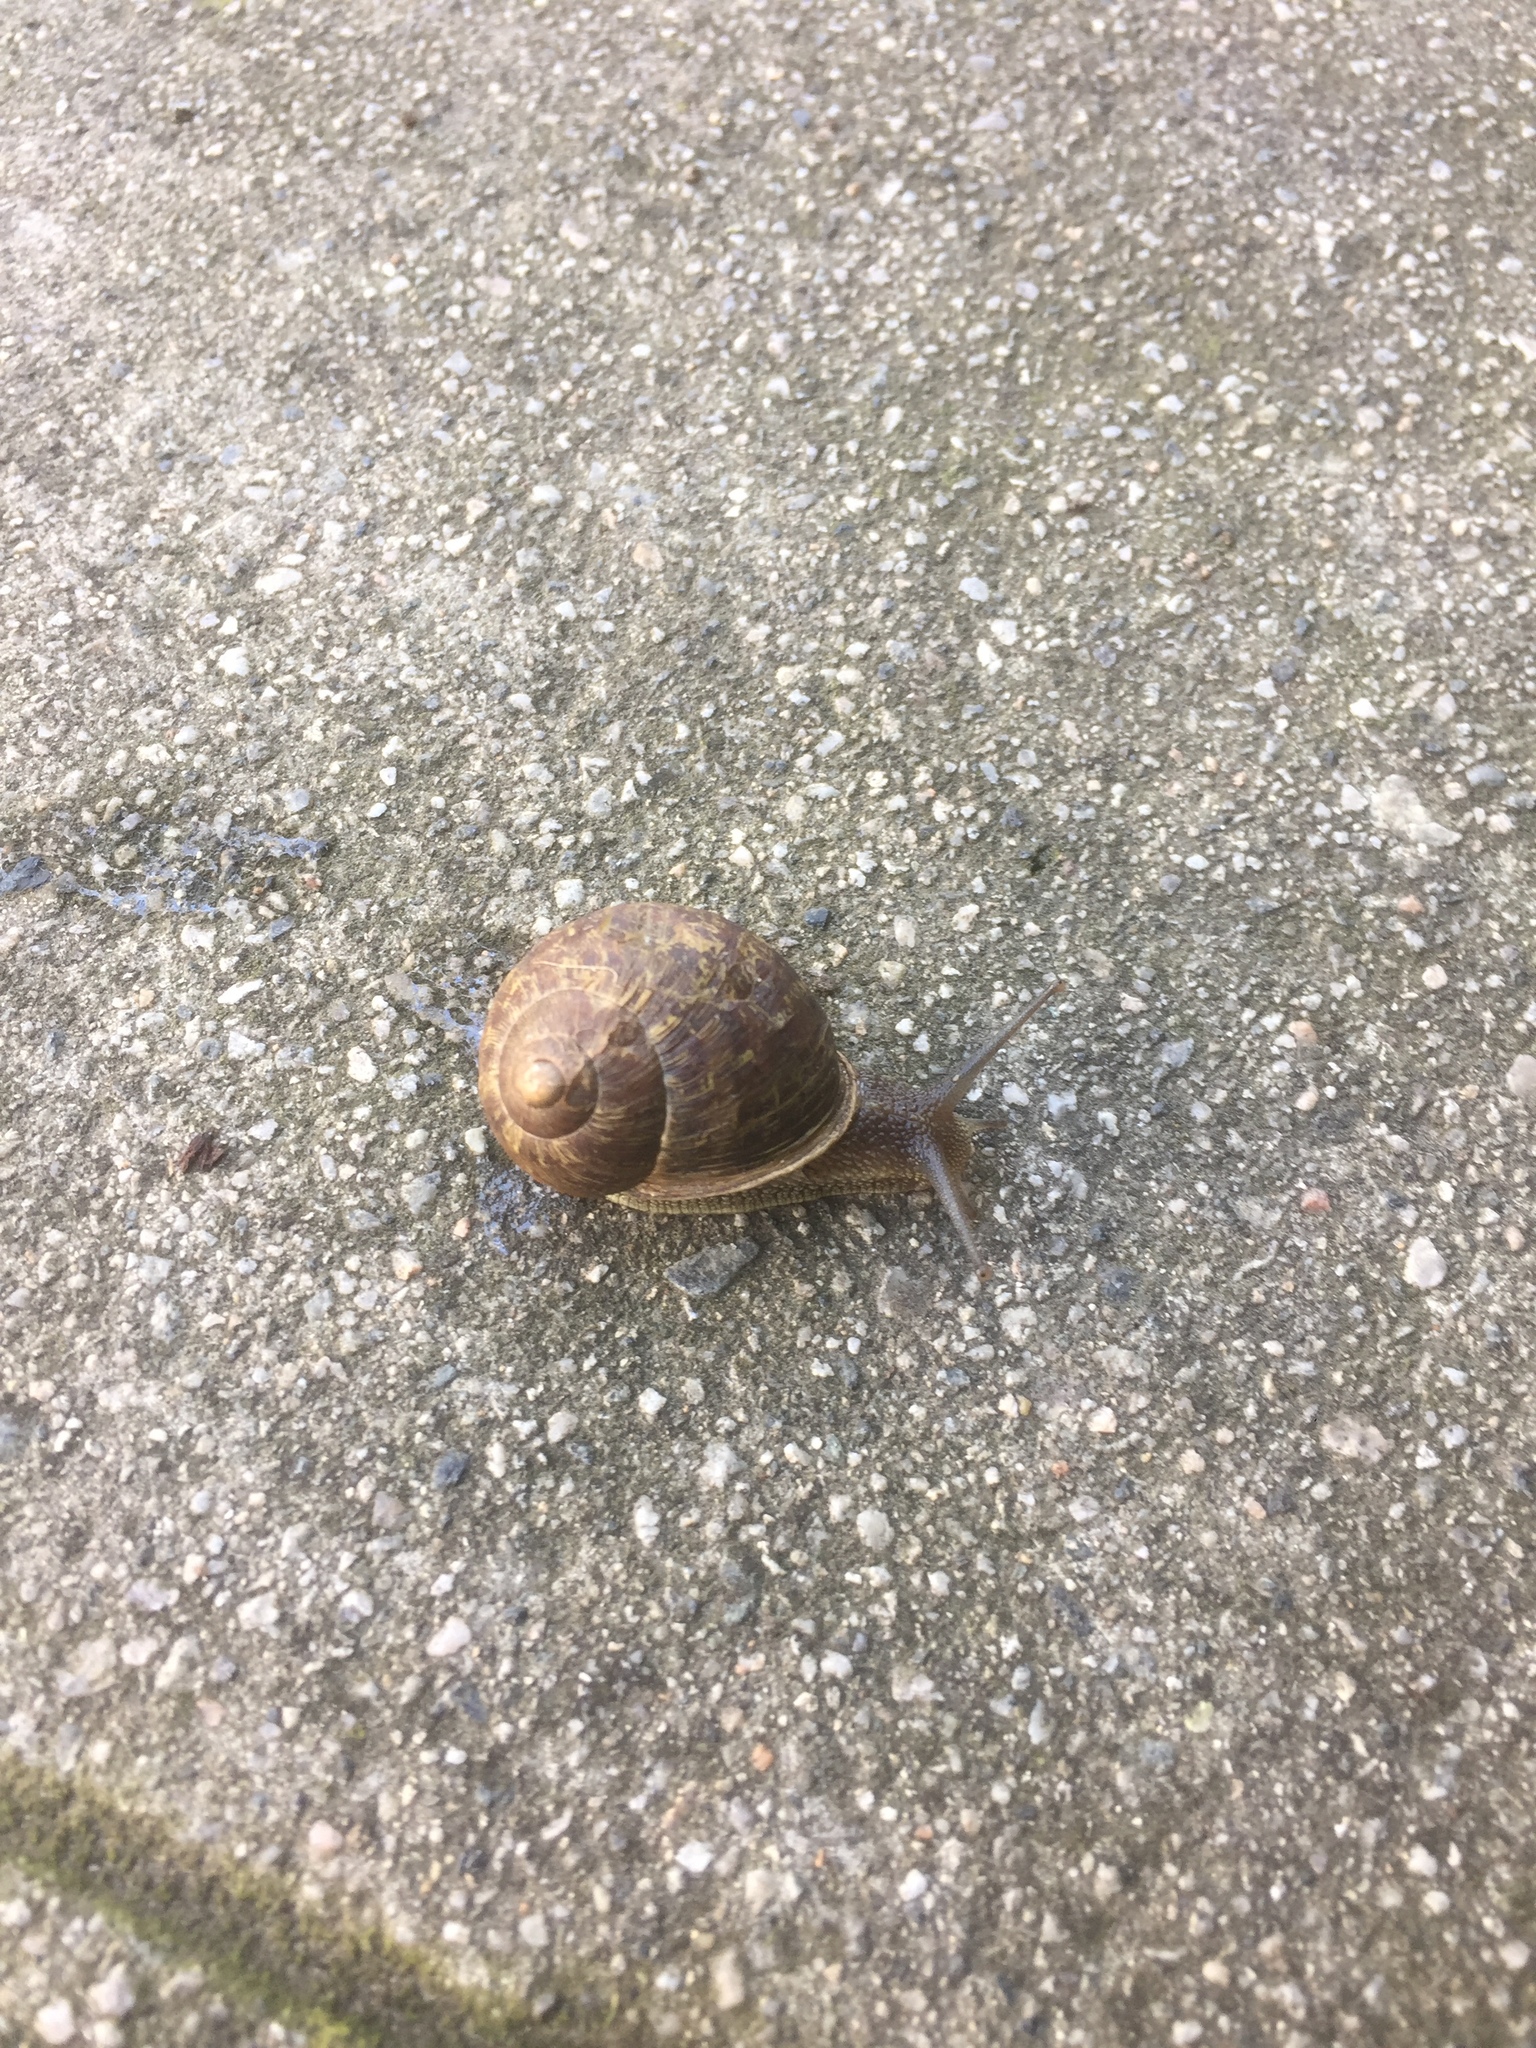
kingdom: Animalia
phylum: Mollusca
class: Gastropoda
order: Stylommatophora
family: Helicidae
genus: Cornu
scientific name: Cornu aspersum
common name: Brown garden snail
